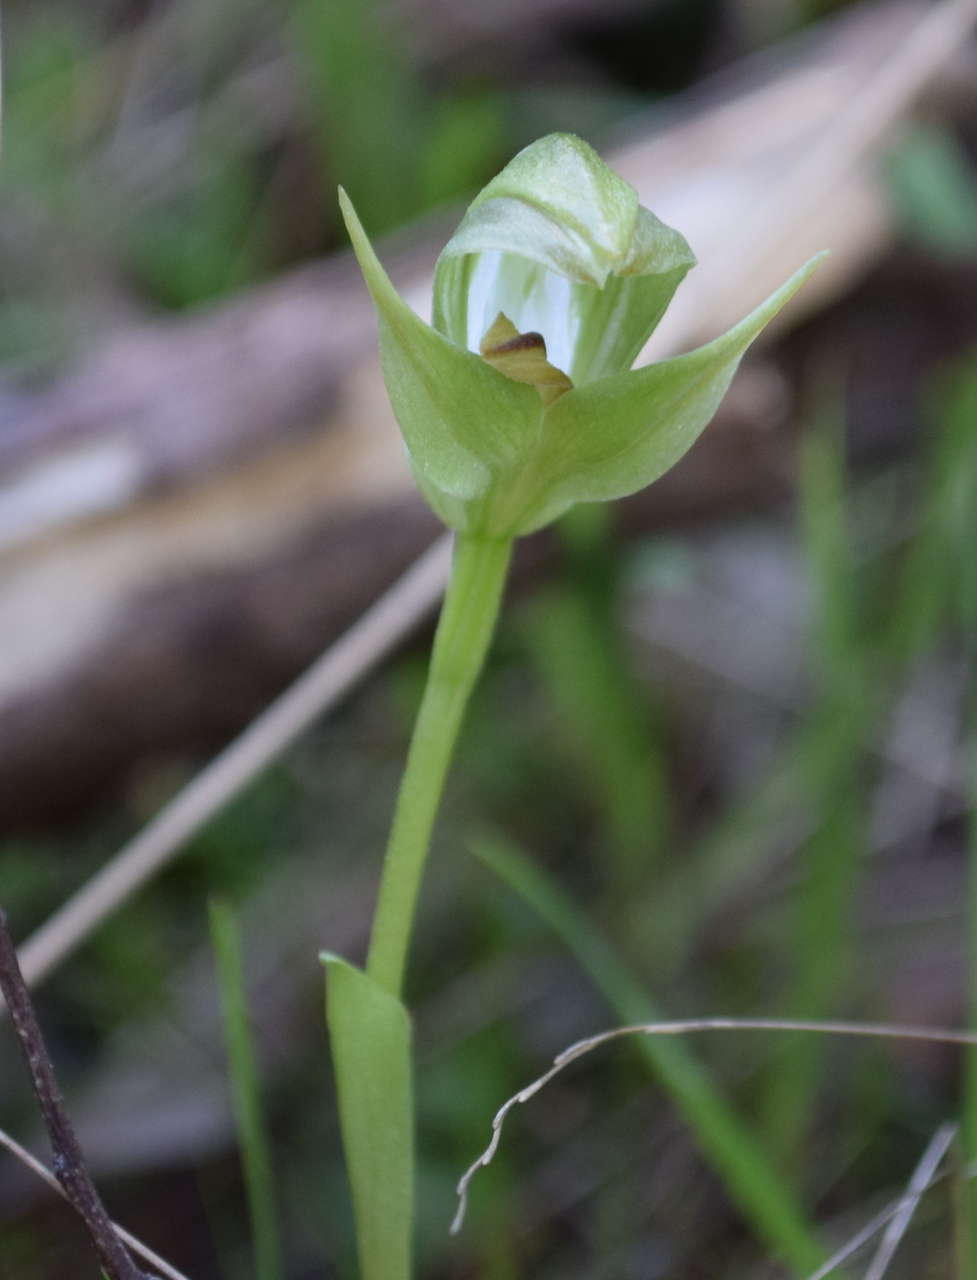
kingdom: Plantae
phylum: Tracheophyta
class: Liliopsida
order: Asparagales
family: Orchidaceae
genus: Pterostylis
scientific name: Pterostylis curta
